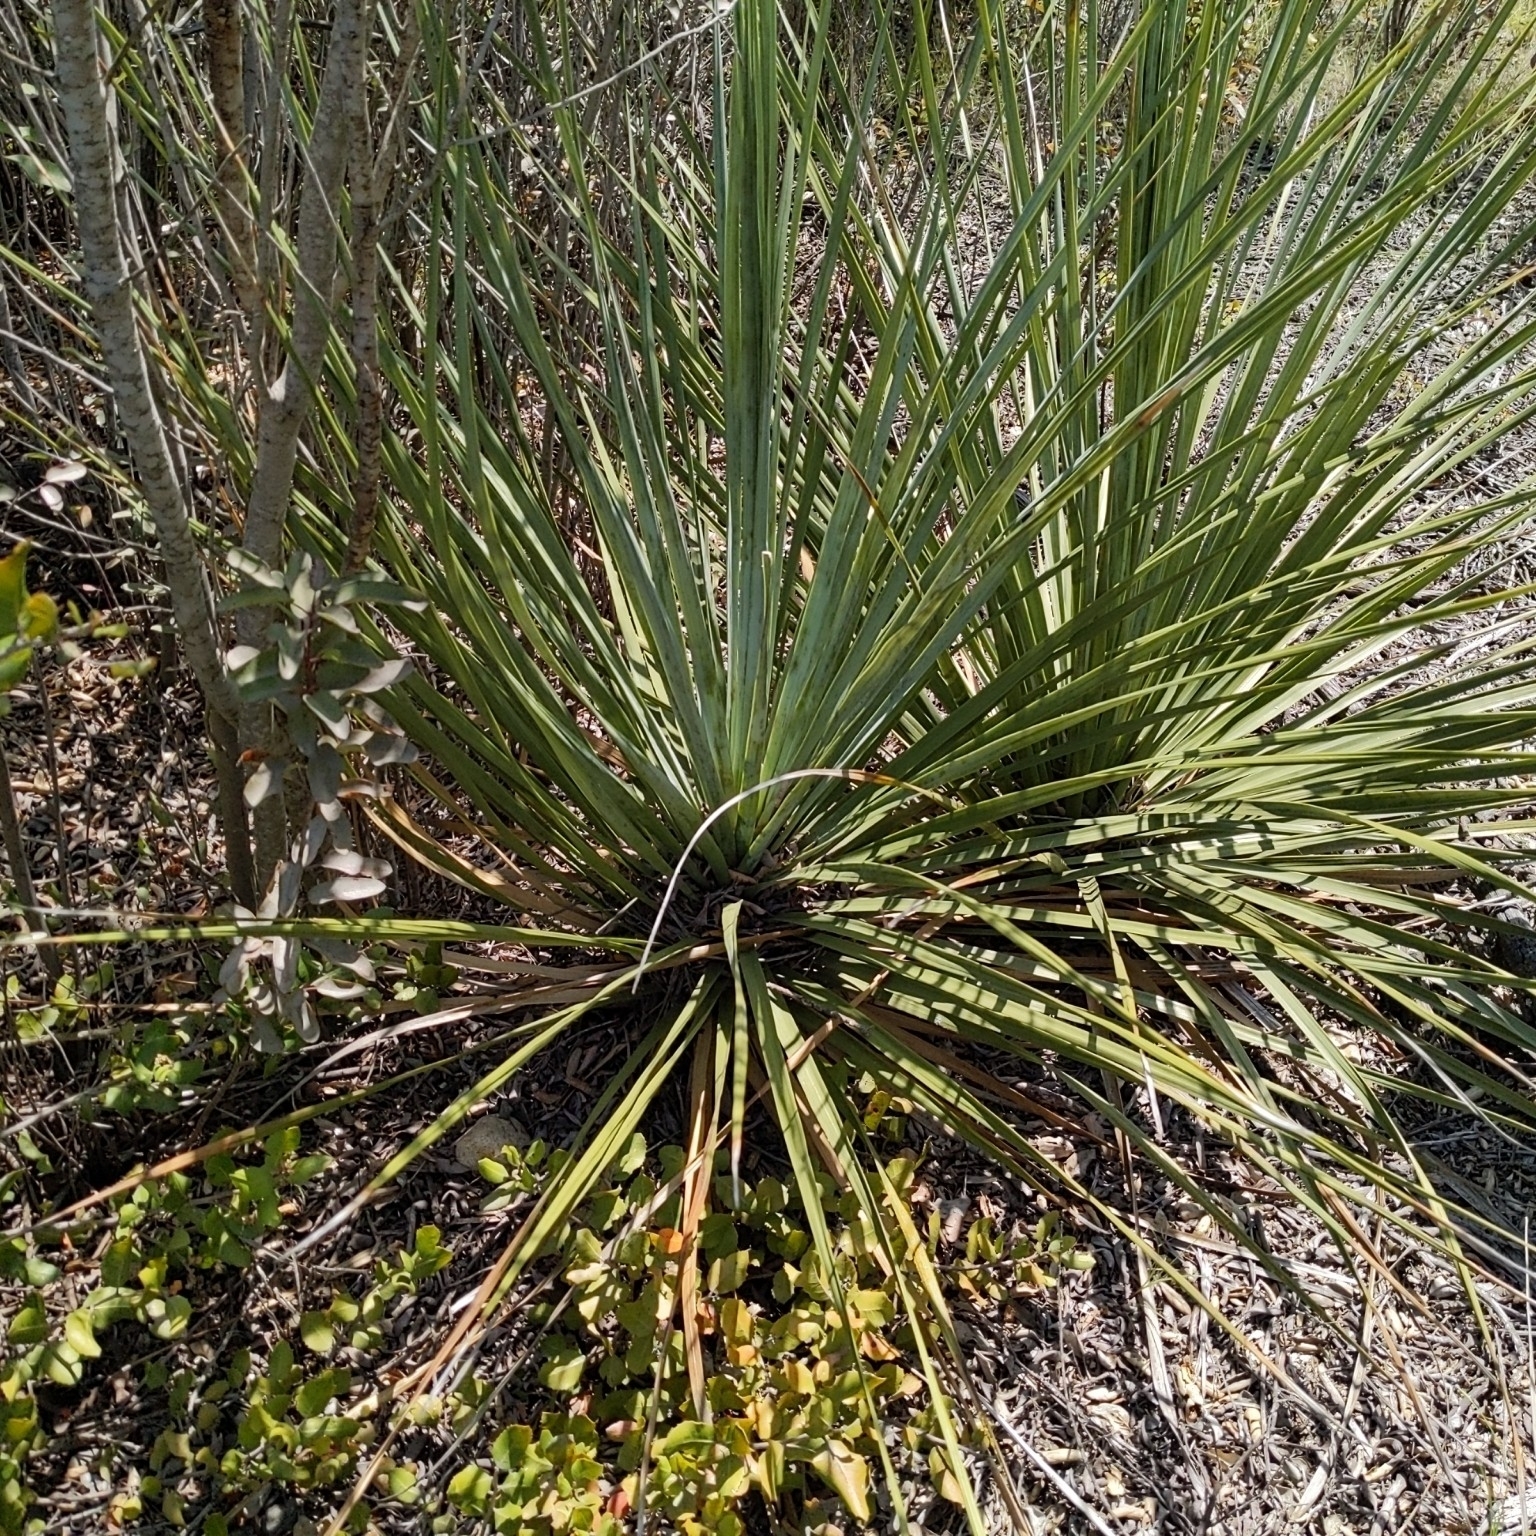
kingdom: Plantae
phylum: Tracheophyta
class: Liliopsida
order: Asparagales
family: Asparagaceae
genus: Nolina
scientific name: Nolina cismontana
